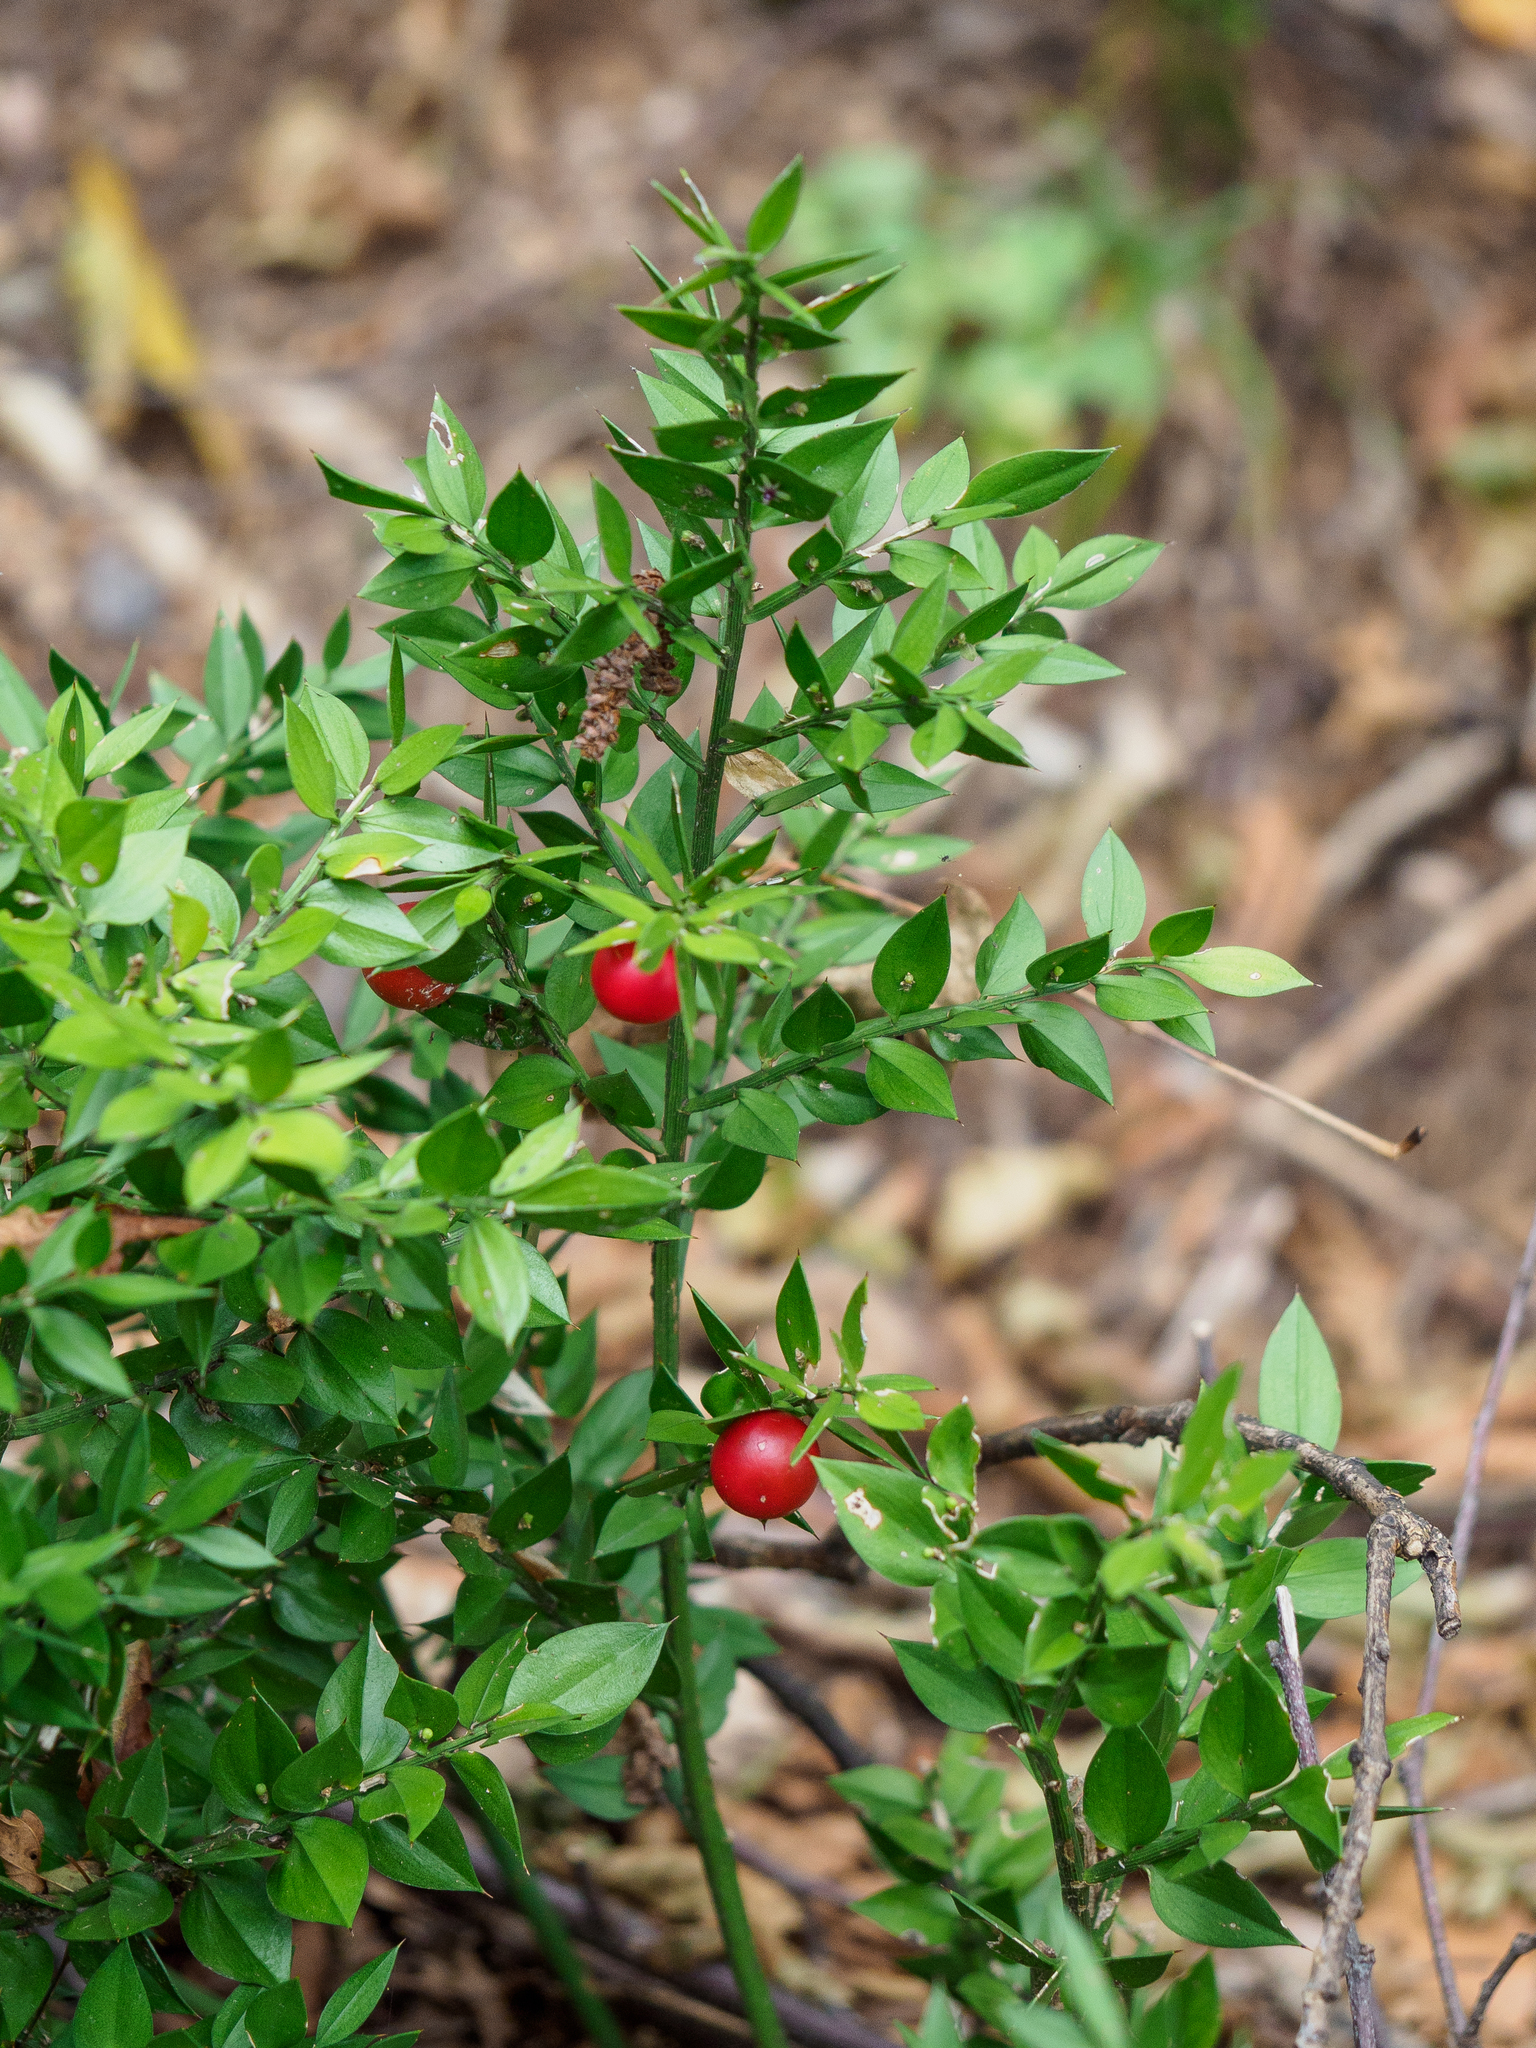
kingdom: Plantae
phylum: Tracheophyta
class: Liliopsida
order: Asparagales
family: Asparagaceae
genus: Ruscus
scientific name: Ruscus aculeatus
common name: Butcher's-broom
